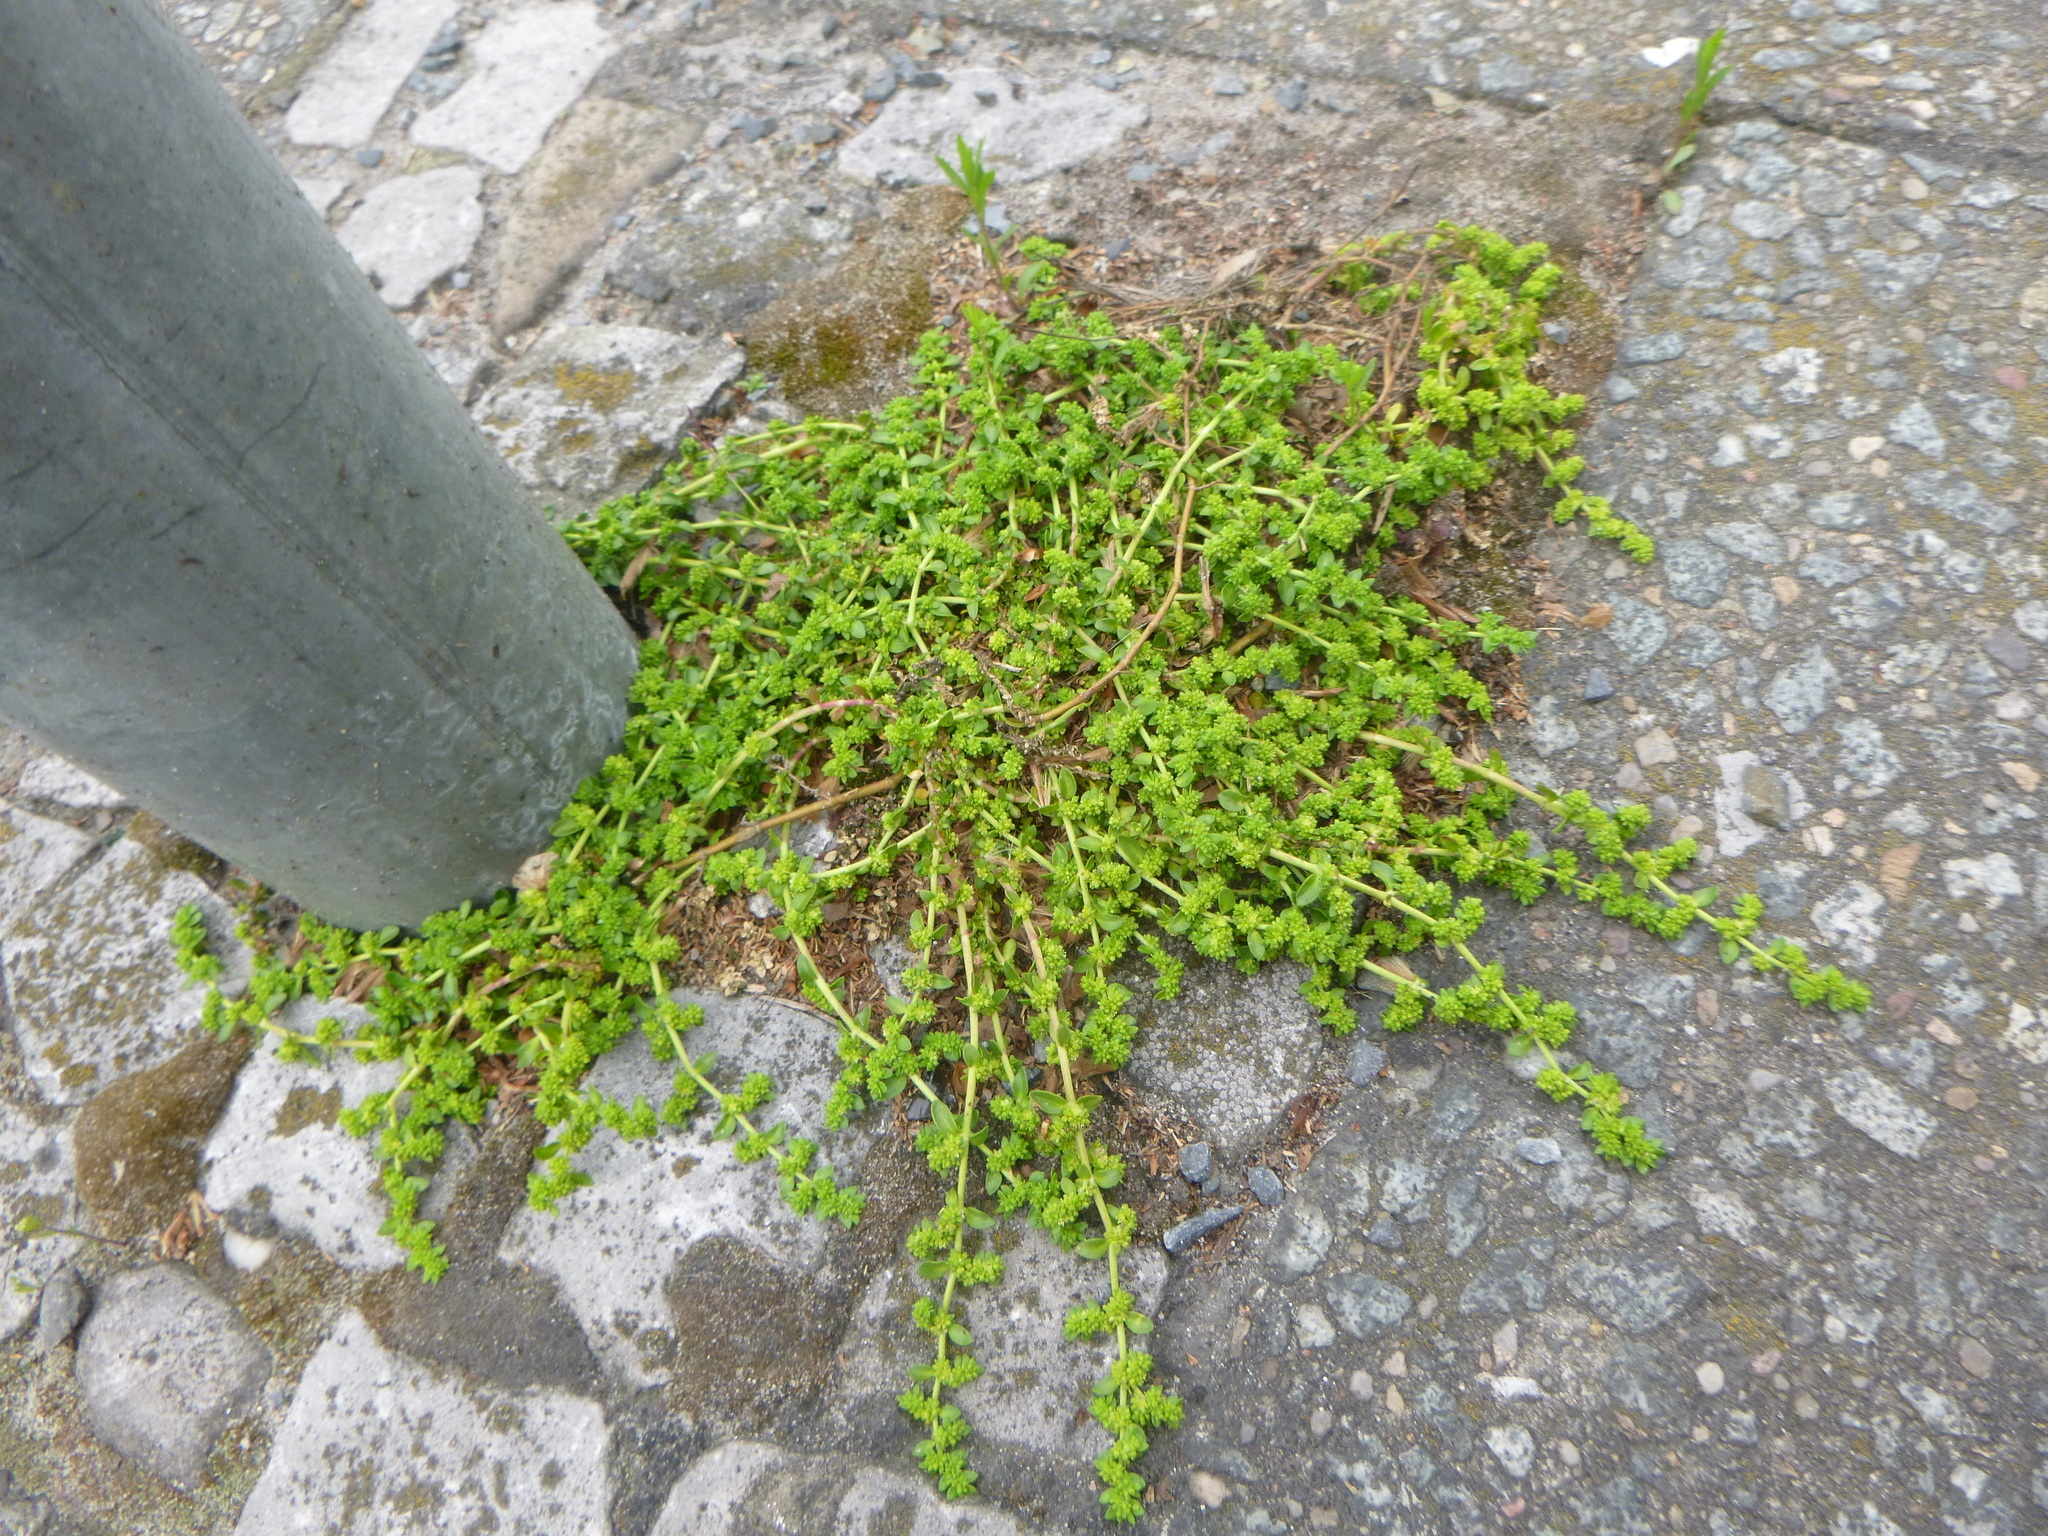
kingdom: Plantae
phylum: Tracheophyta
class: Magnoliopsida
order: Caryophyllales
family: Caryophyllaceae
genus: Herniaria
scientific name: Herniaria glabra
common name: Smooth rupturewort
